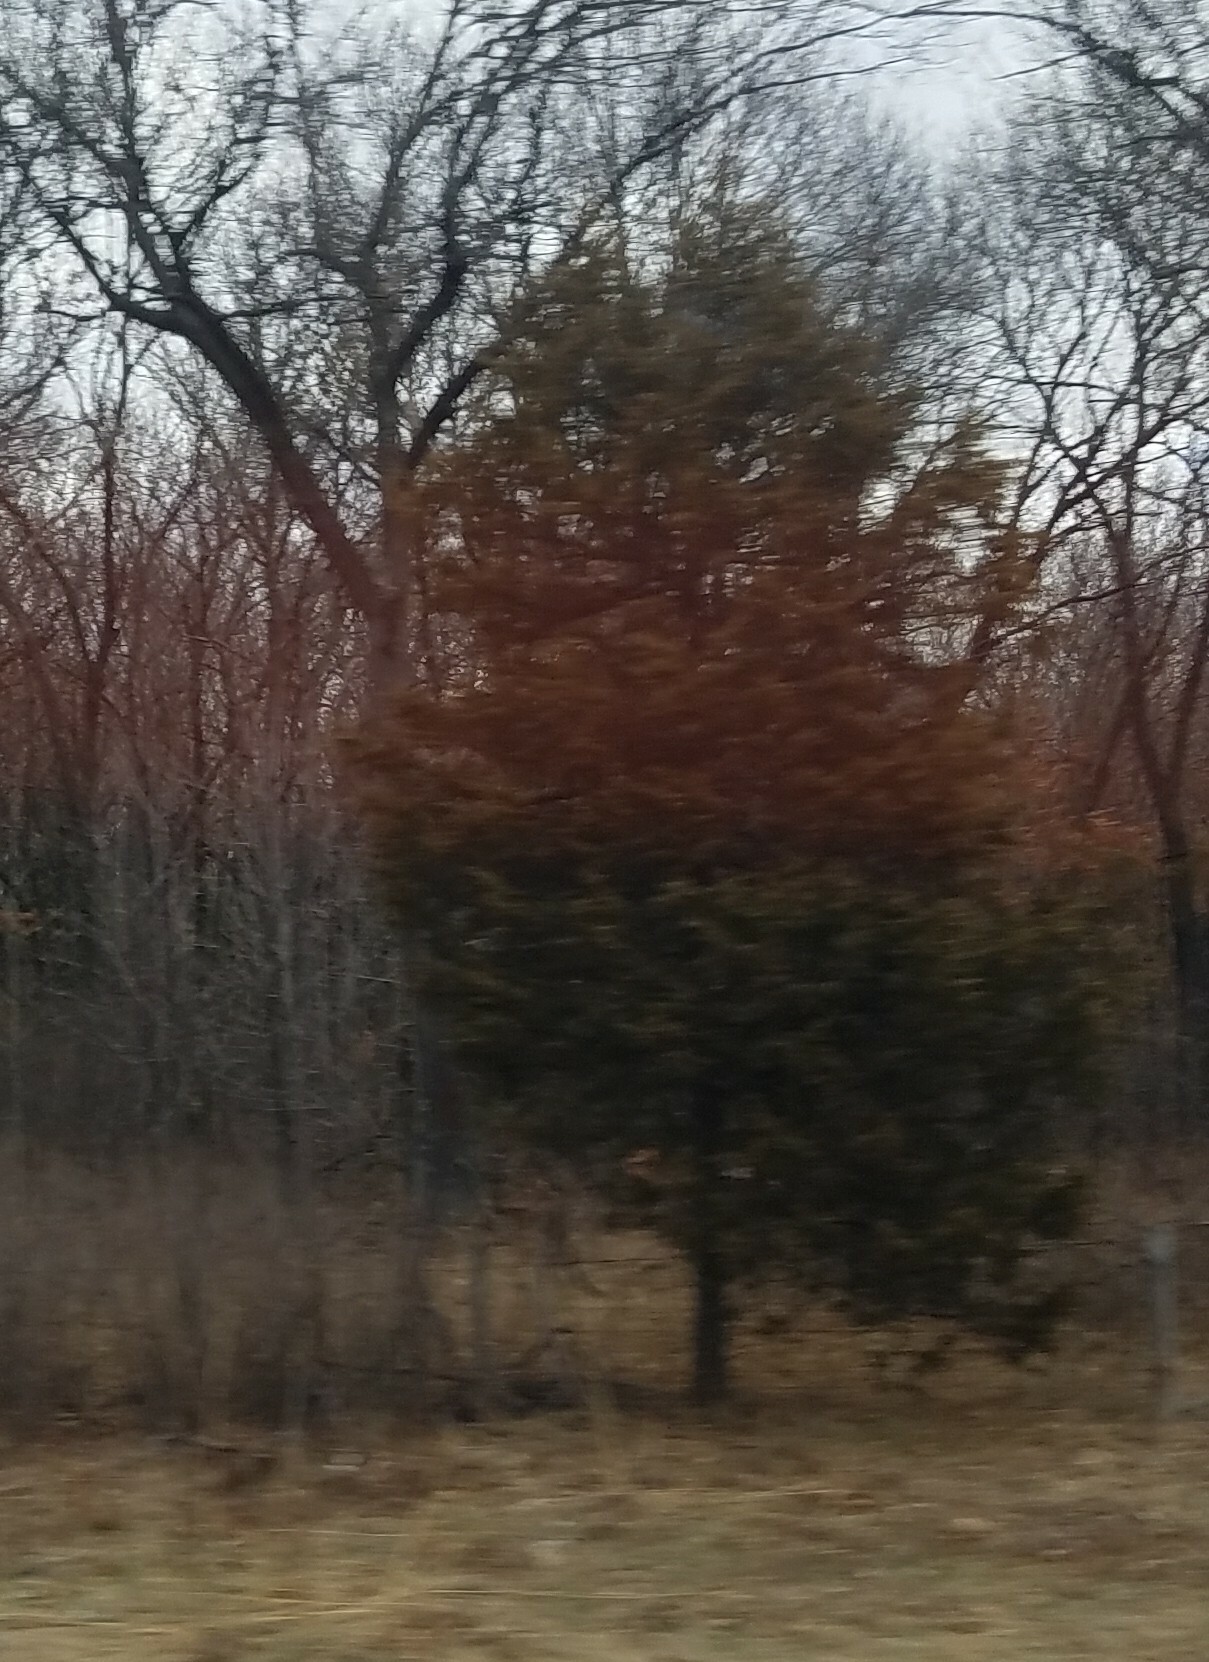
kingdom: Plantae
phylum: Tracheophyta
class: Pinopsida
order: Pinales
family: Cupressaceae
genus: Juniperus
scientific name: Juniperus virginiana
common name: Red juniper
